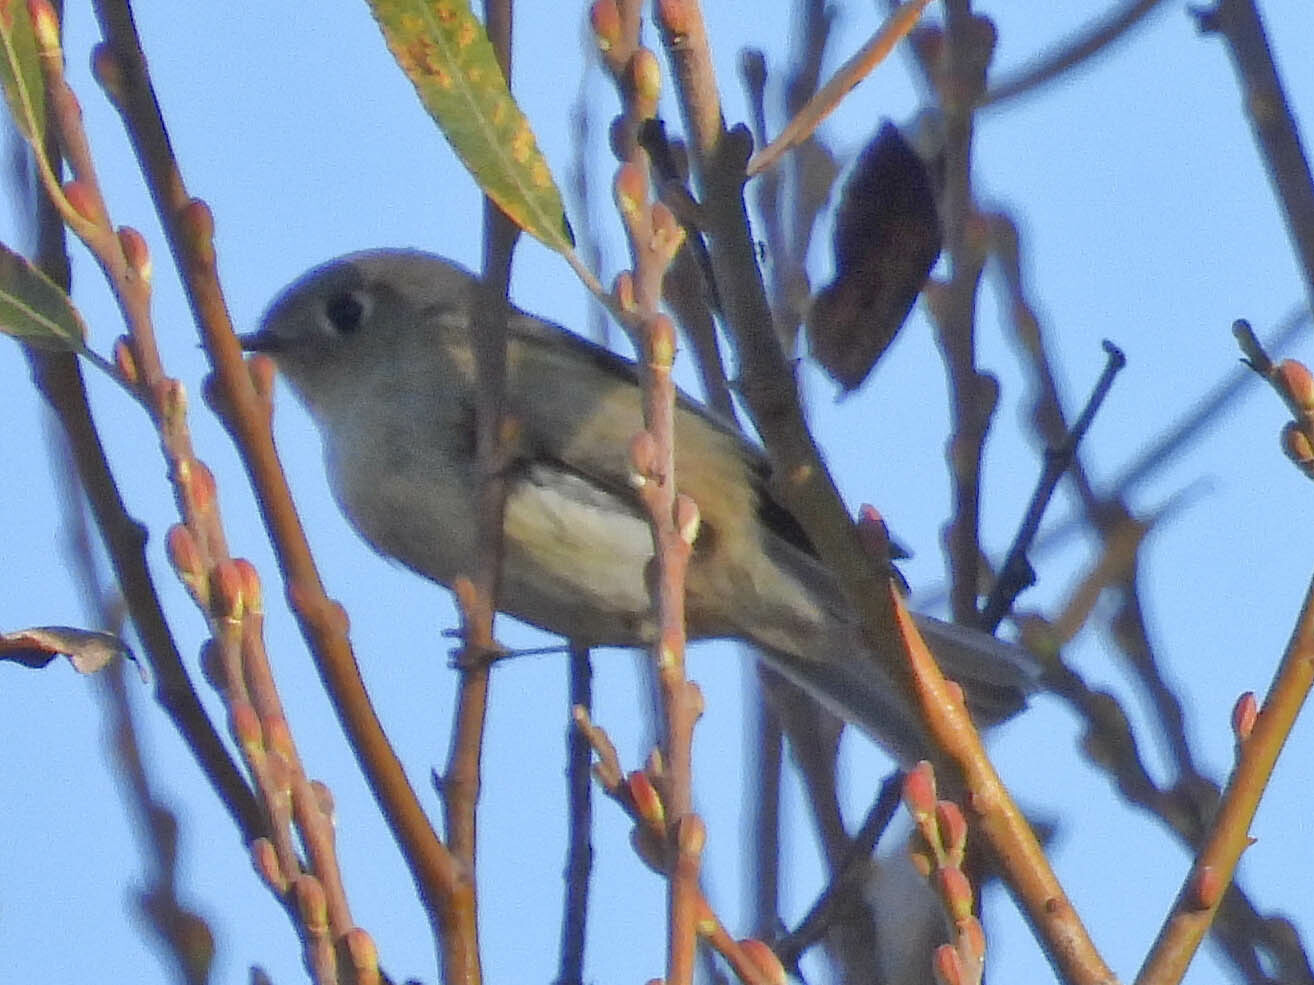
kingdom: Animalia
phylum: Chordata
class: Aves
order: Passeriformes
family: Regulidae
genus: Regulus
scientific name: Regulus calendula
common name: Ruby-crowned kinglet
